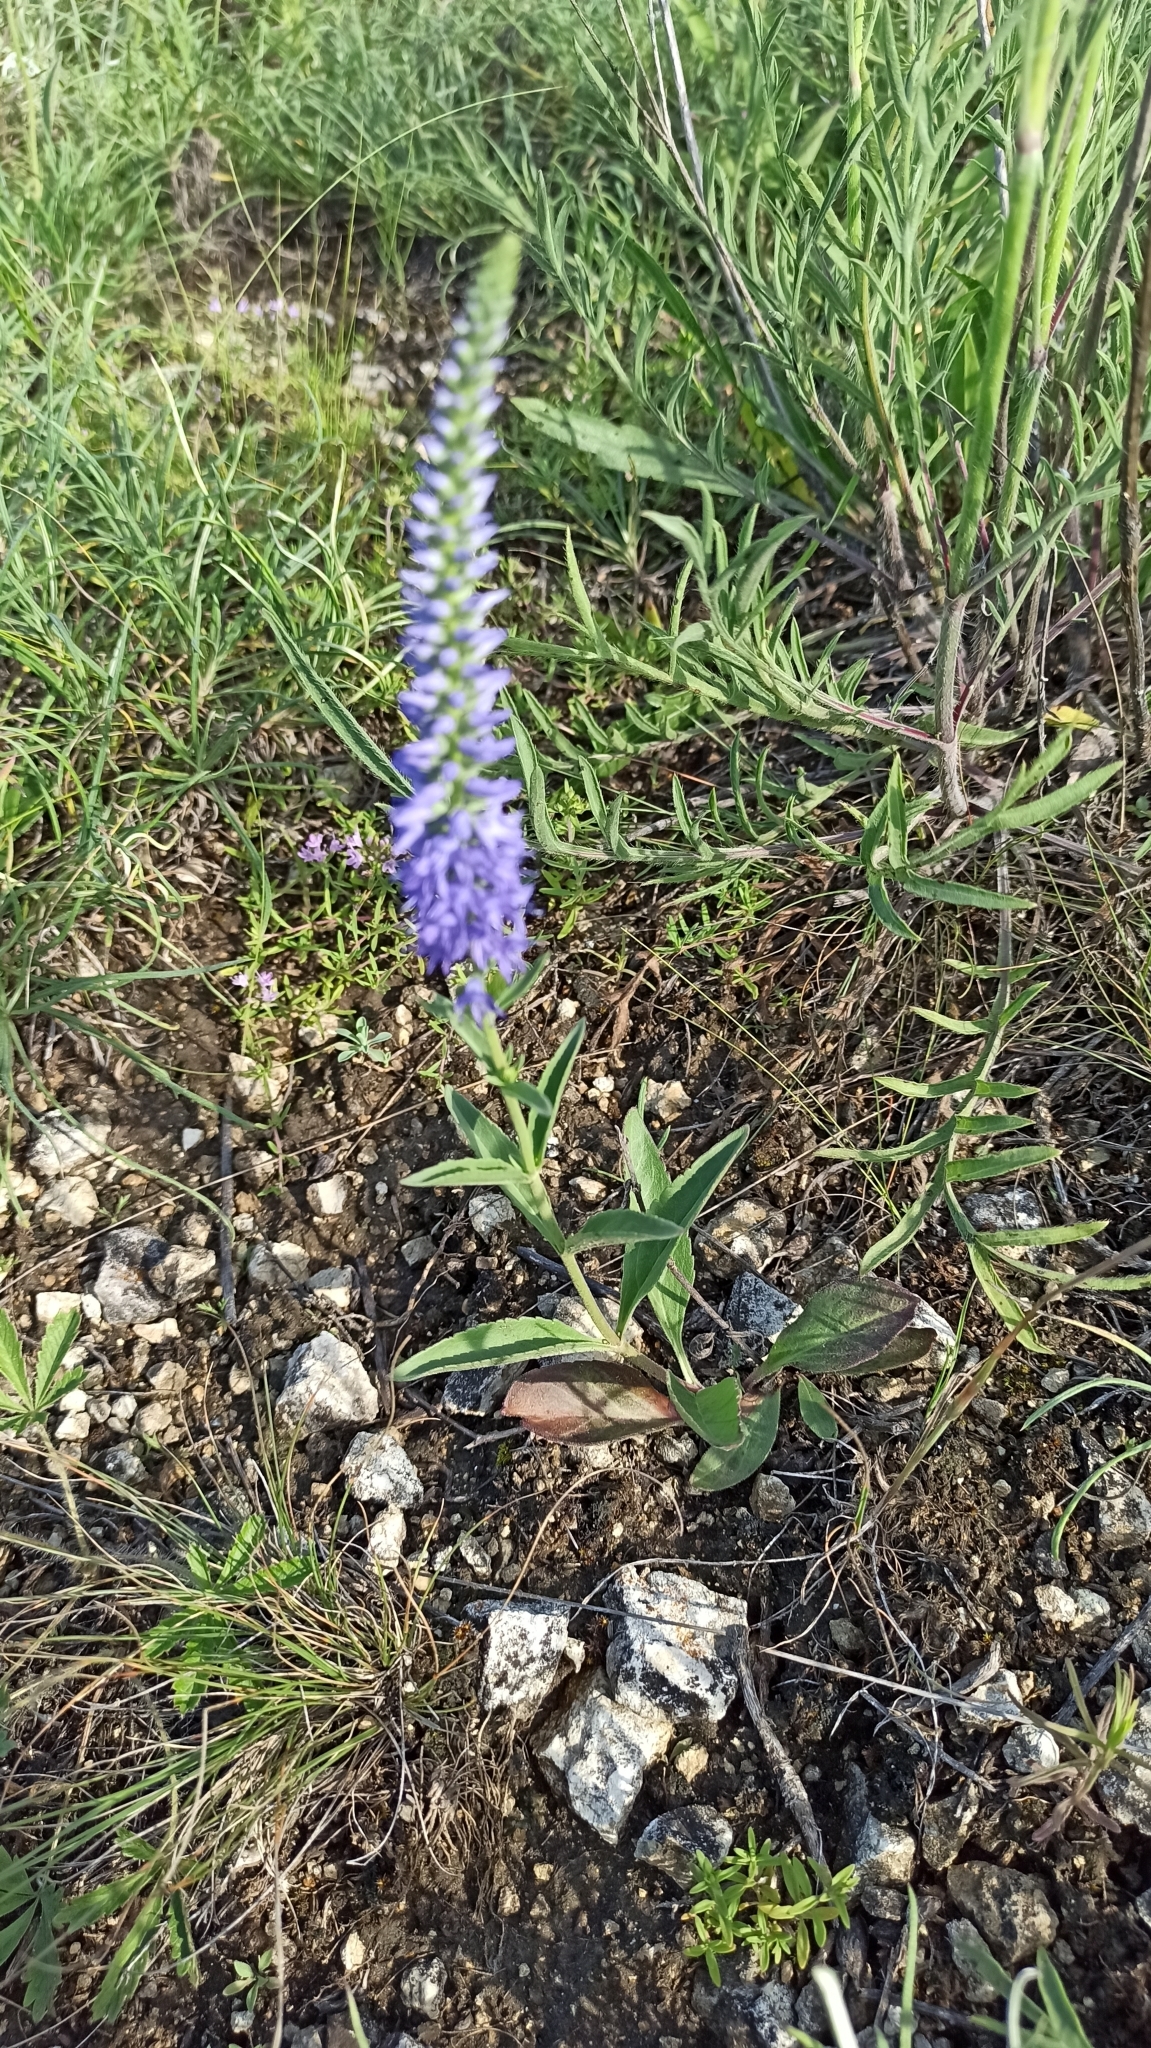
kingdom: Plantae
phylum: Tracheophyta
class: Magnoliopsida
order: Lamiales
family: Plantaginaceae
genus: Veronica
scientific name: Veronica barrelieri
